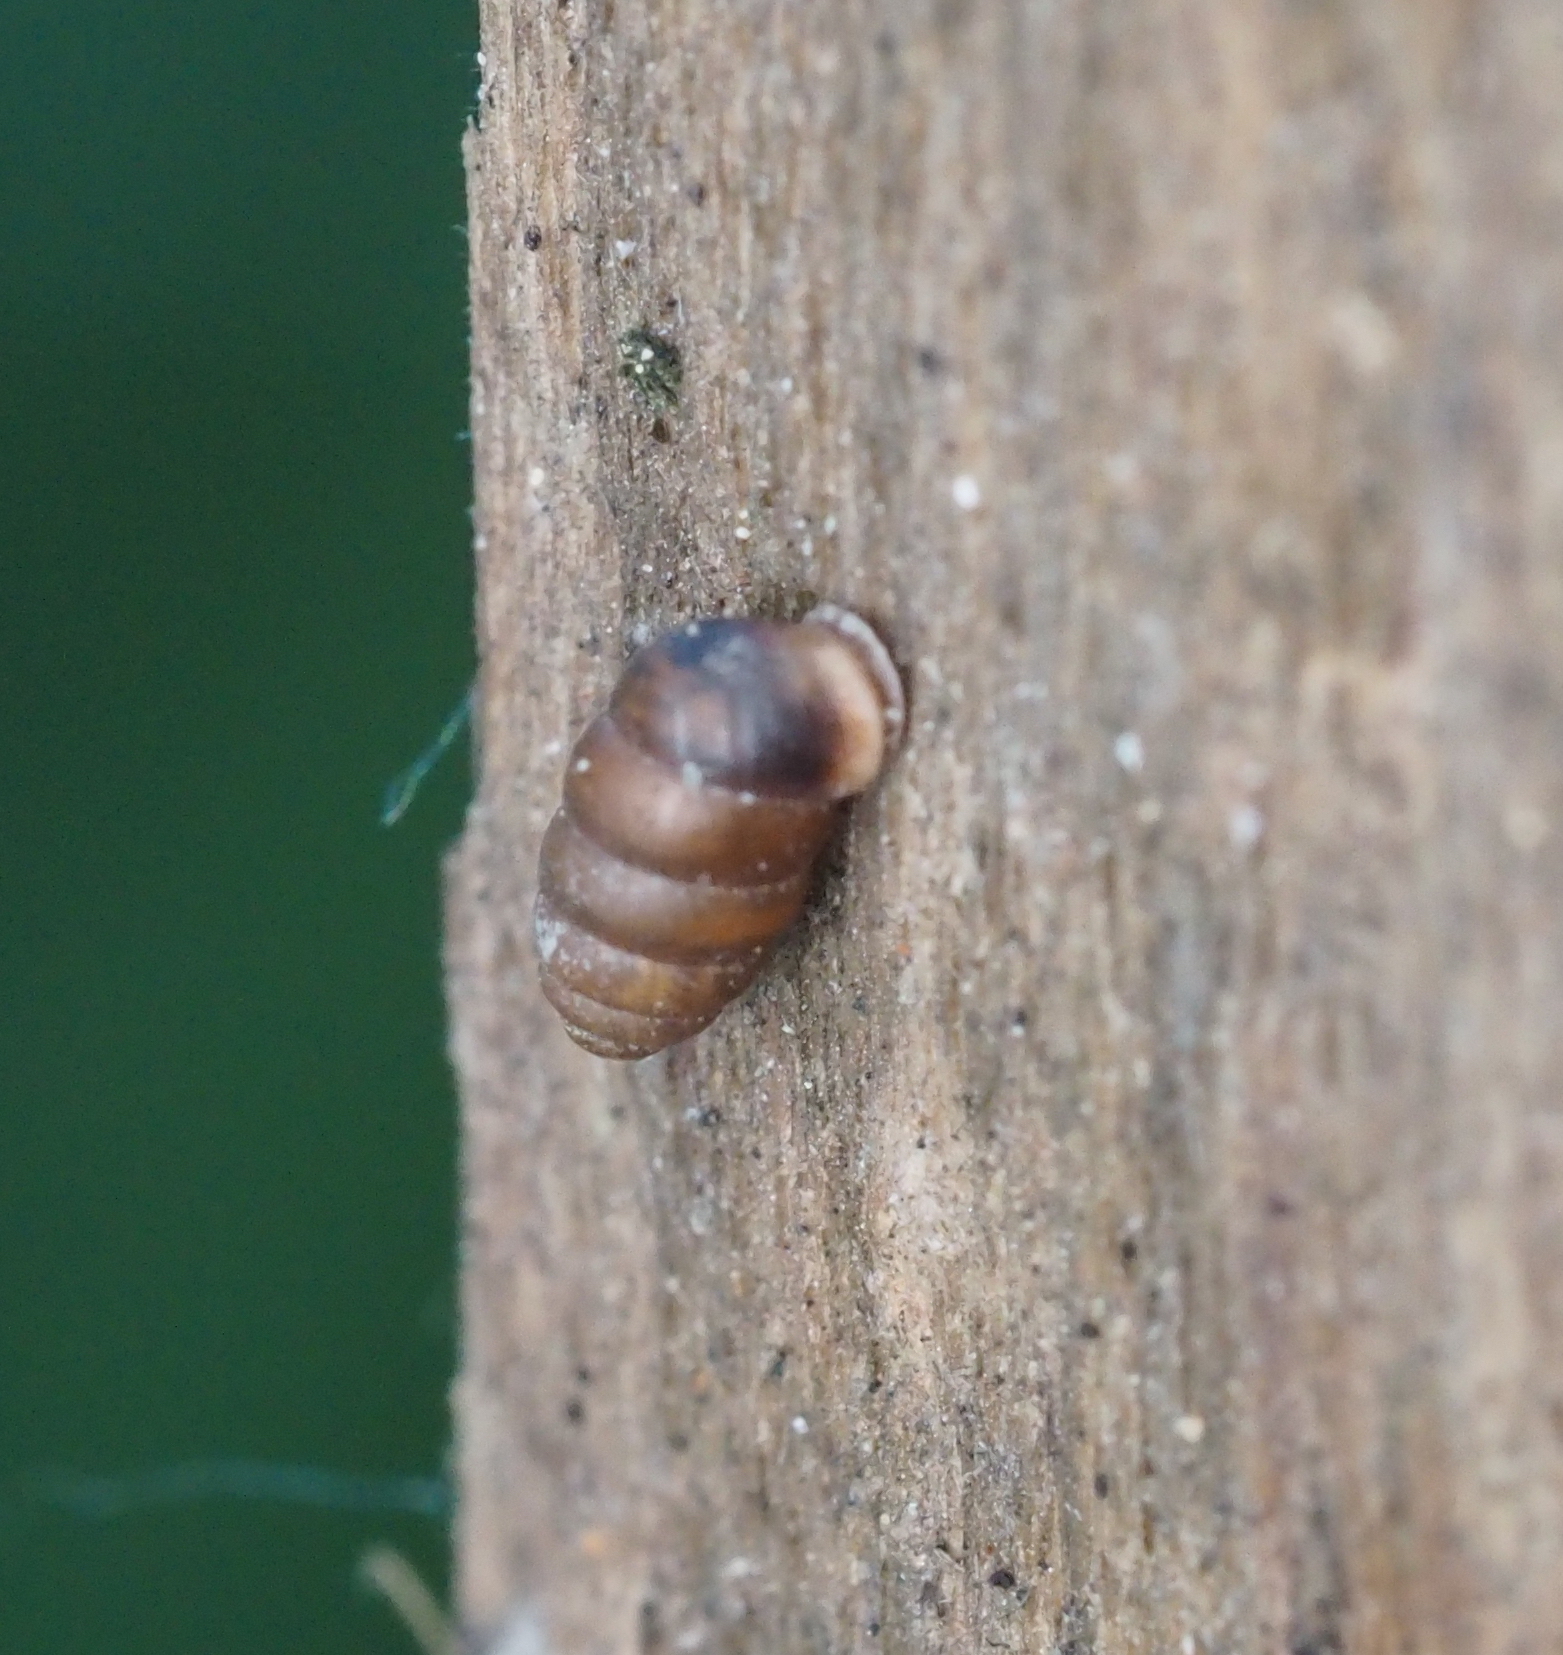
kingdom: Animalia
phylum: Mollusca
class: Gastropoda
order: Stylommatophora
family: Pupillidae
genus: Pupilla
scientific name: Pupilla muscorum
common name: Moss chrysalis snail
